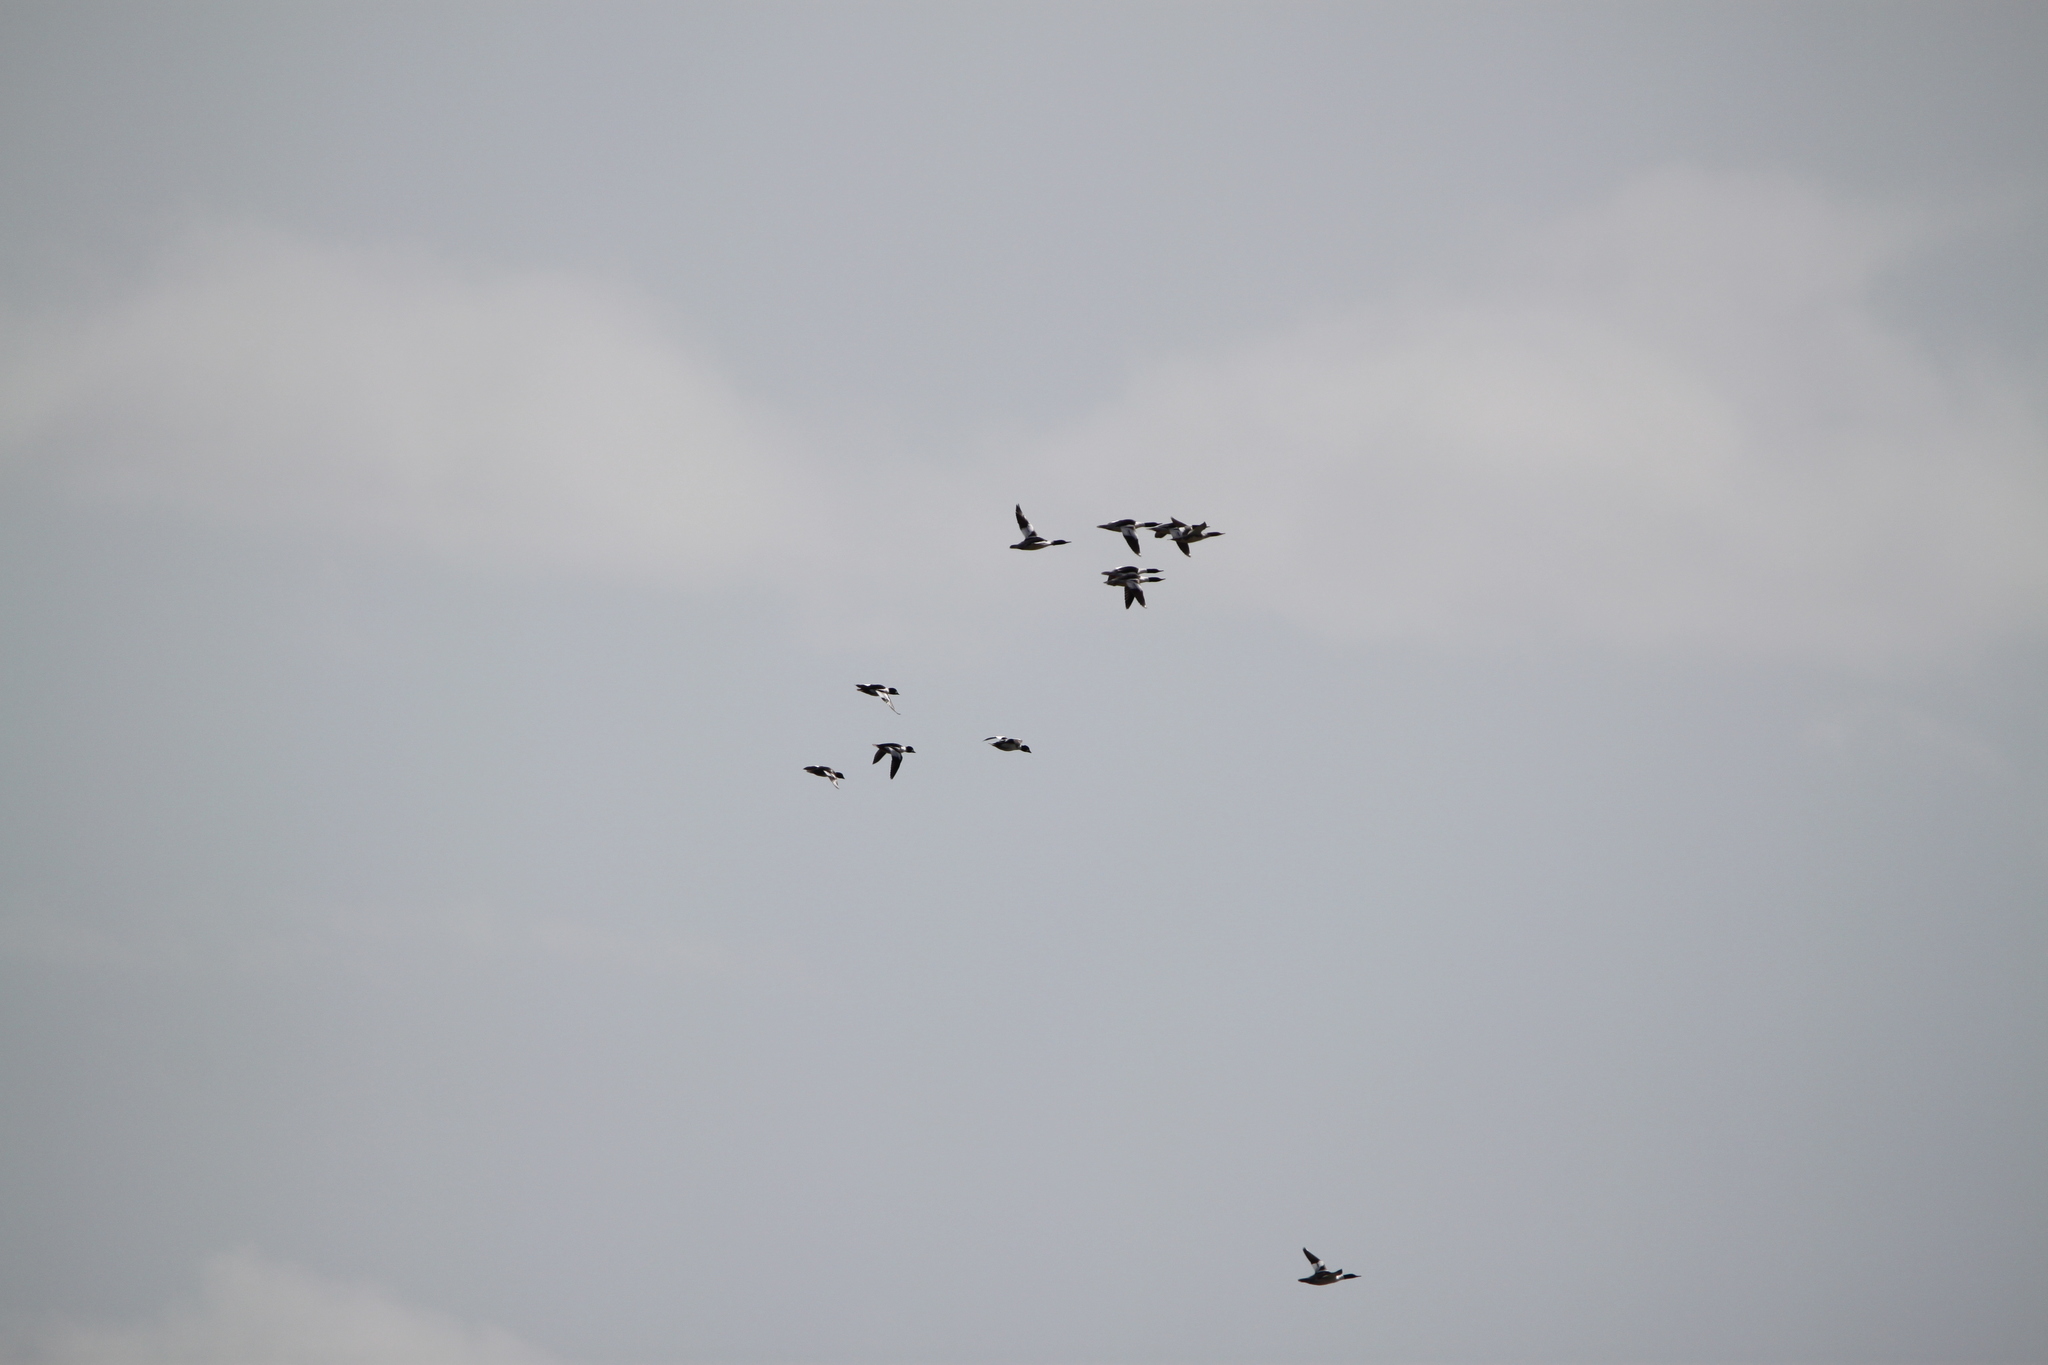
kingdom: Animalia
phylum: Chordata
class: Aves
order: Anseriformes
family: Anatidae
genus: Mergus
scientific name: Mergus merganser
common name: Common merganser
